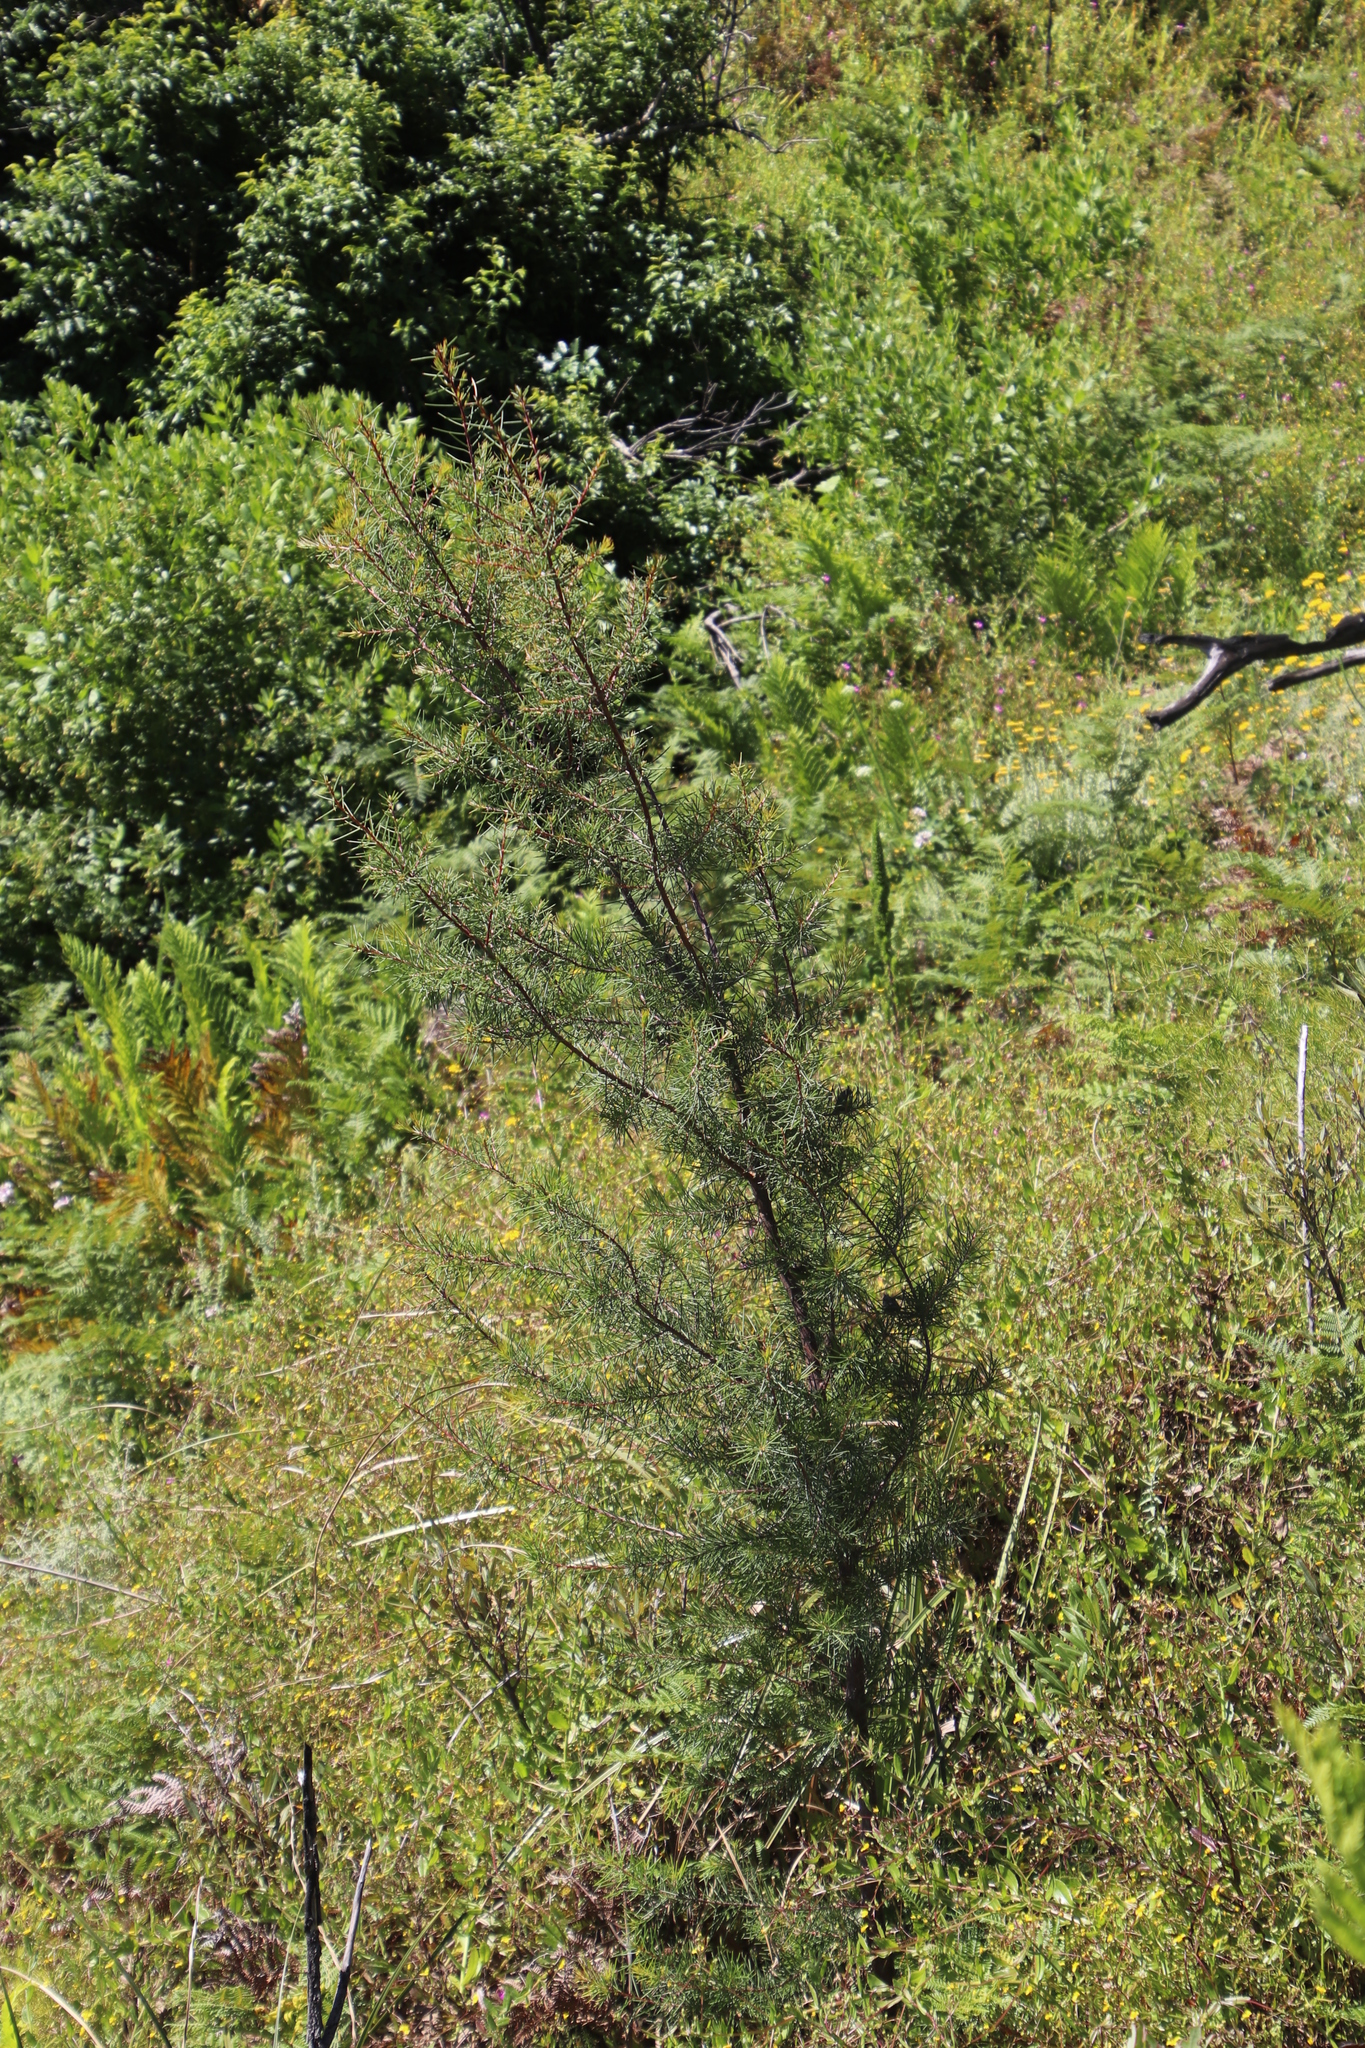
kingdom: Plantae
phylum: Tracheophyta
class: Magnoliopsida
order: Proteales
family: Proteaceae
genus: Hakea
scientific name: Hakea sericea
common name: Needle bush
